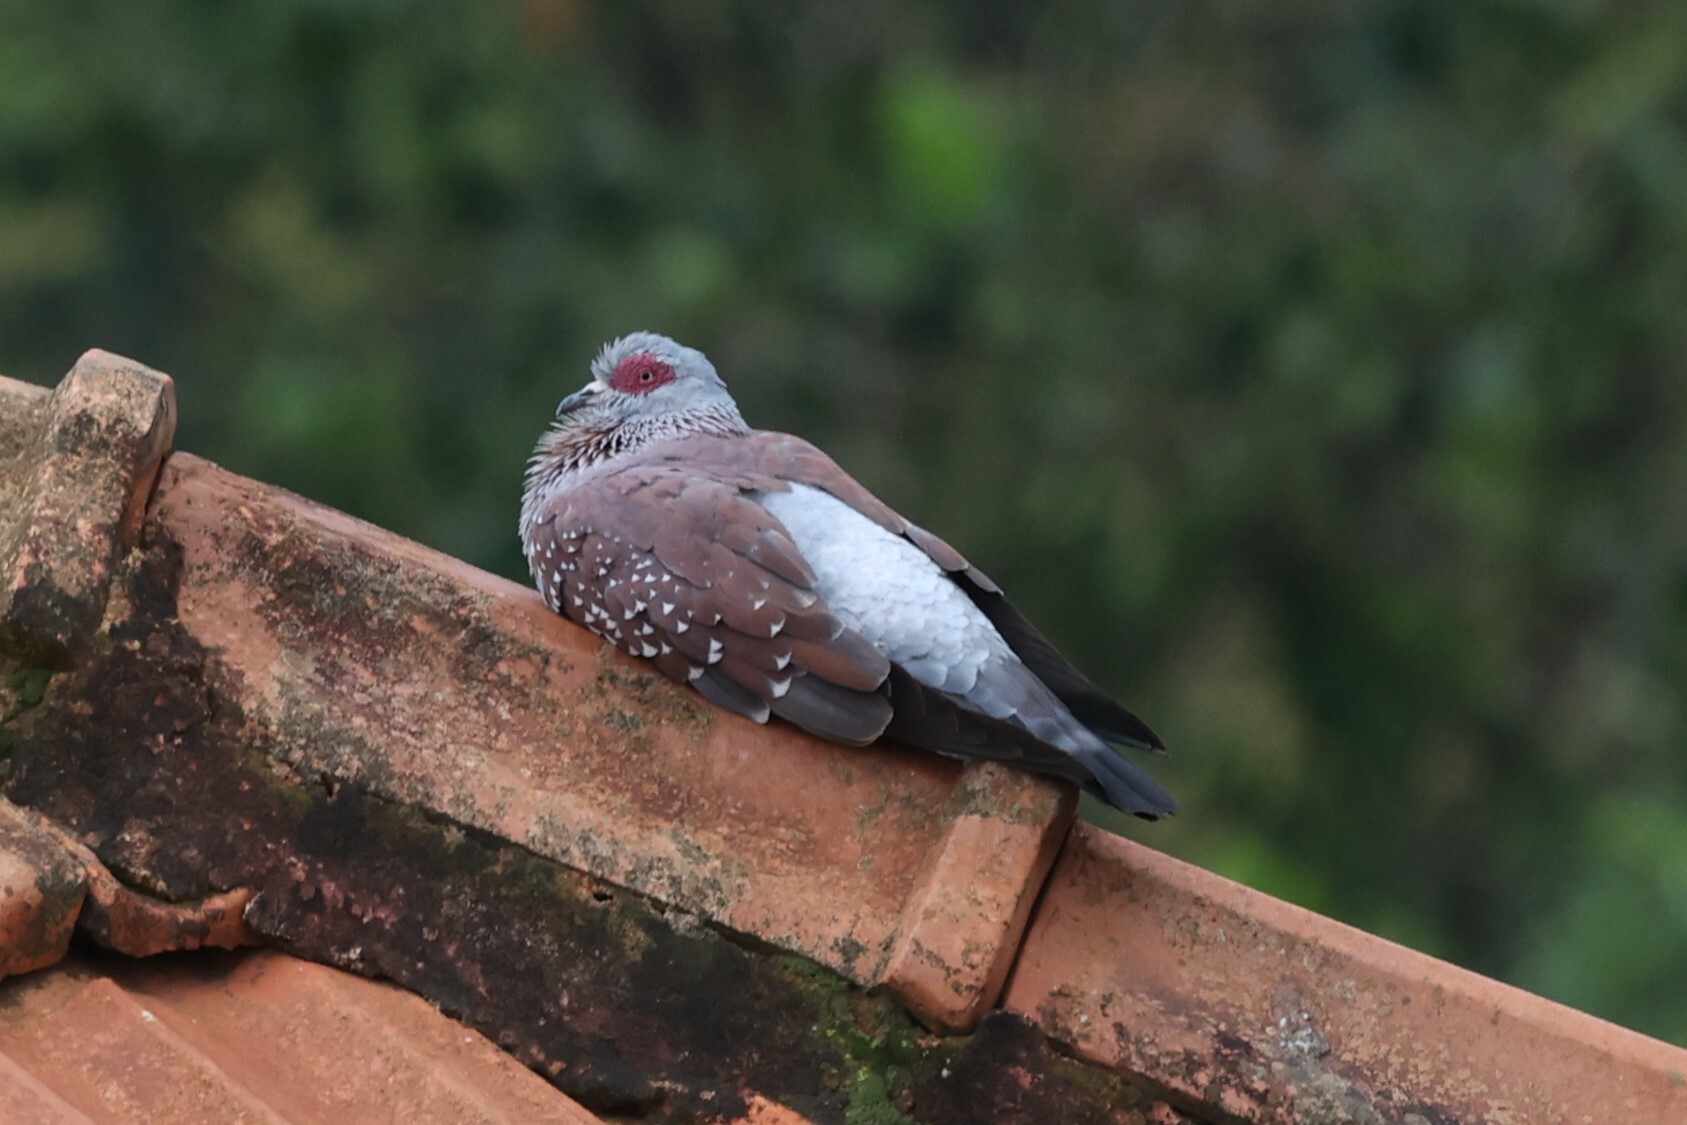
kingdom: Animalia
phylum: Chordata
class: Aves
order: Columbiformes
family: Columbidae
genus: Columba
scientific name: Columba guinea
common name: Speckled pigeon
